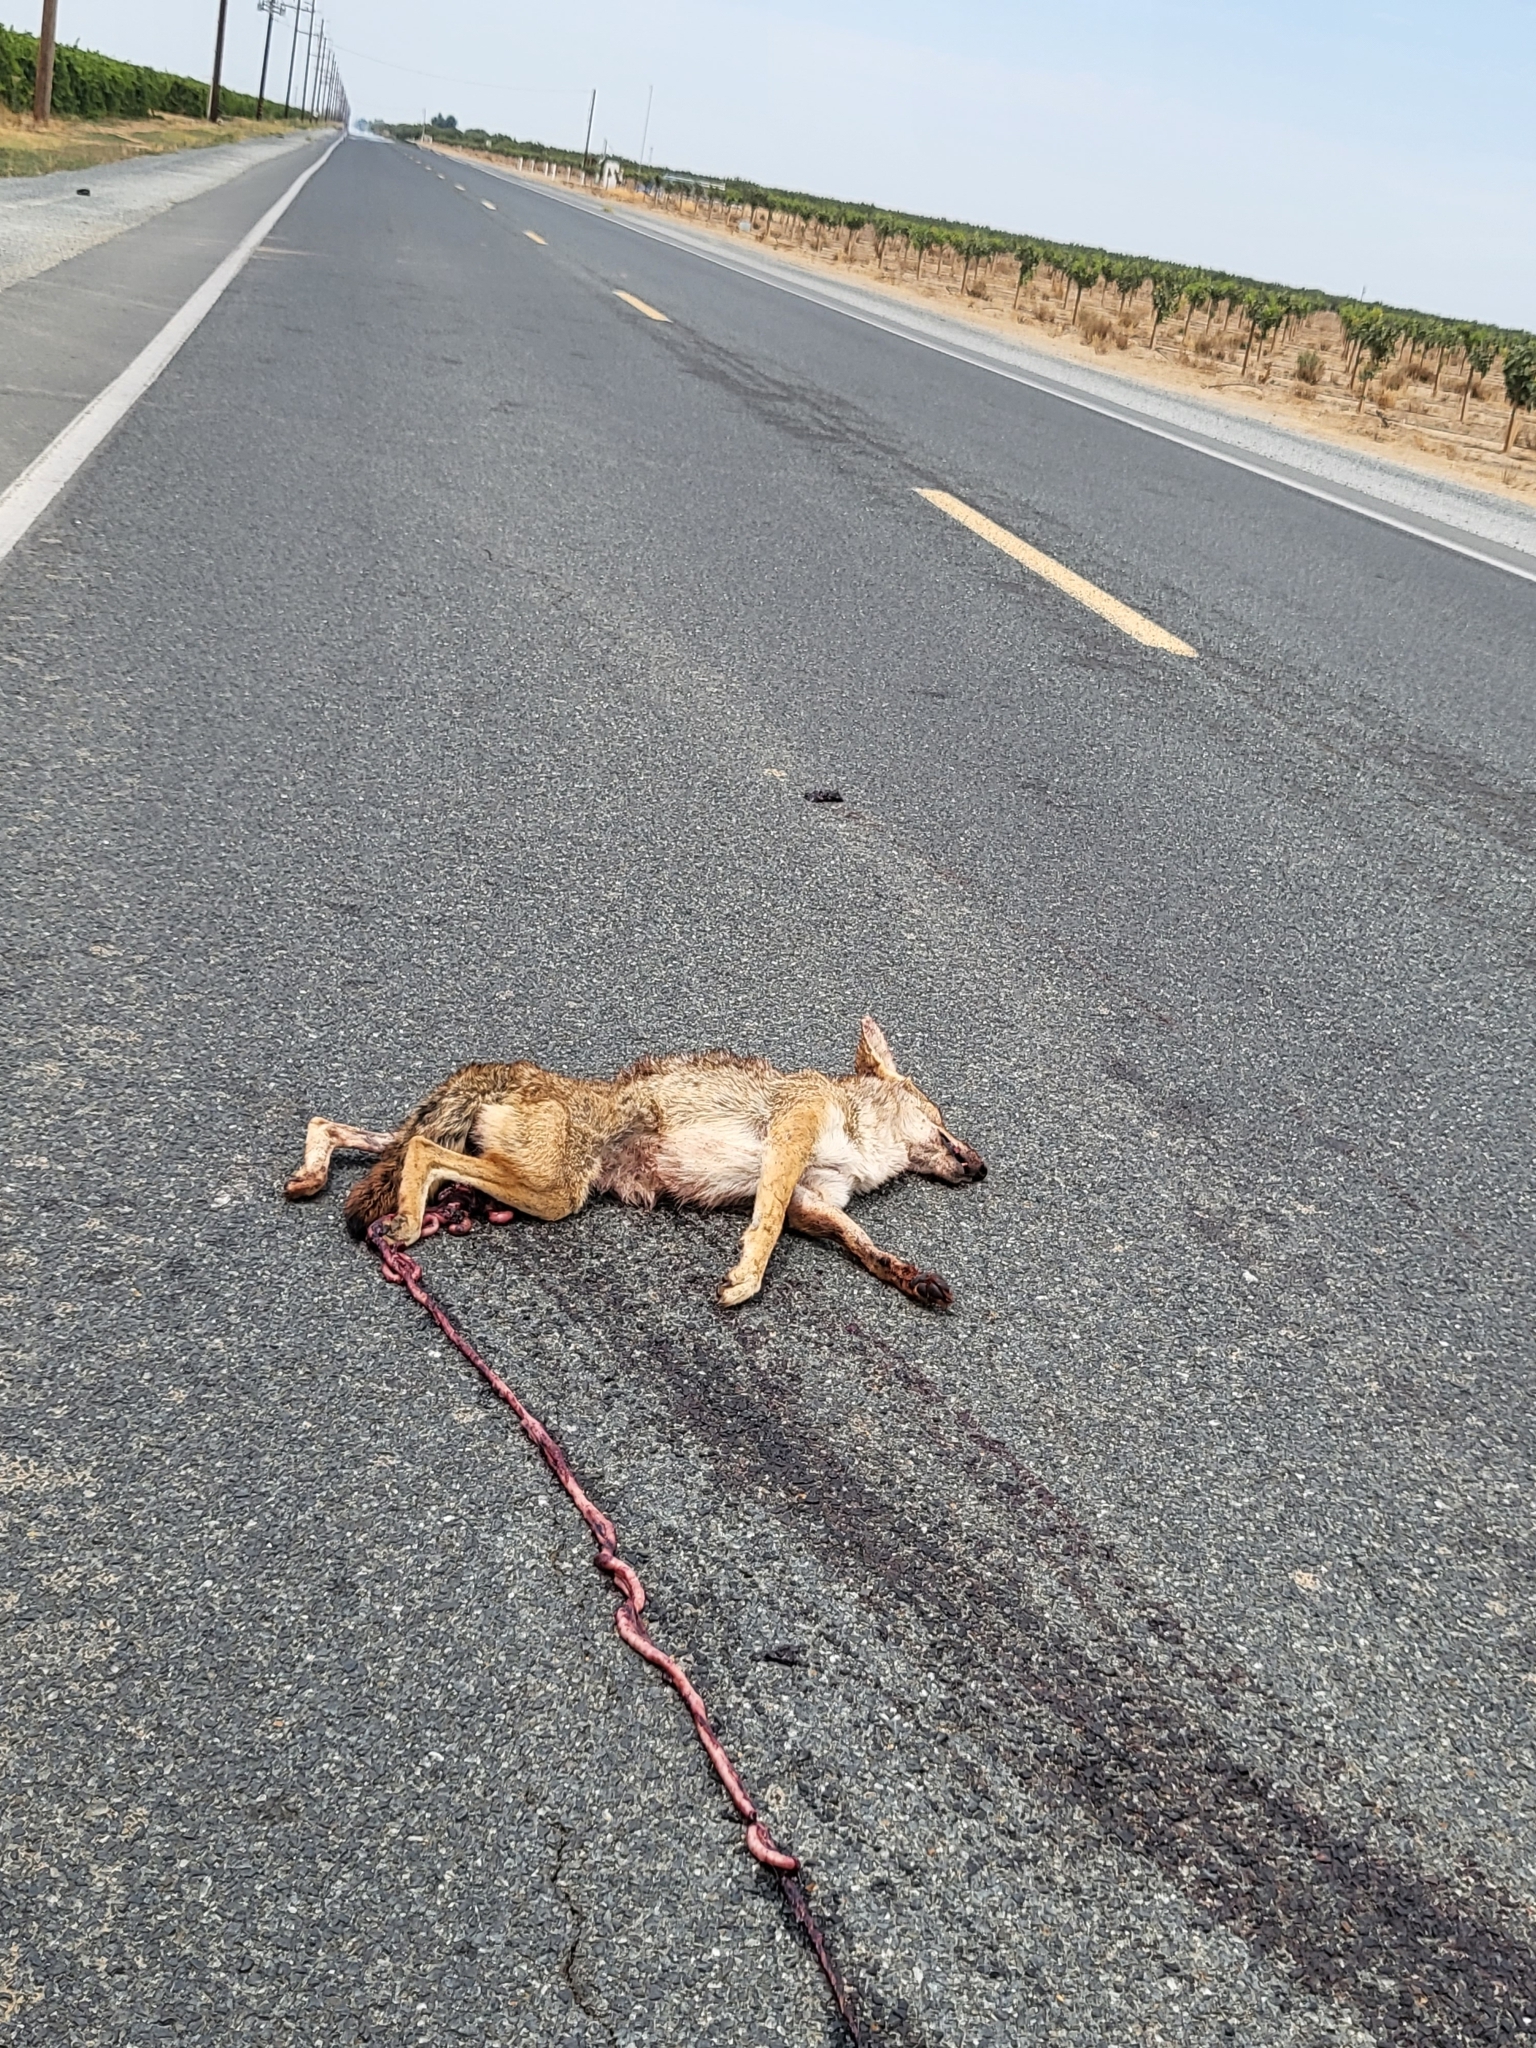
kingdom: Animalia
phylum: Chordata
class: Mammalia
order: Carnivora
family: Canidae
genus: Canis
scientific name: Canis latrans
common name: Coyote
